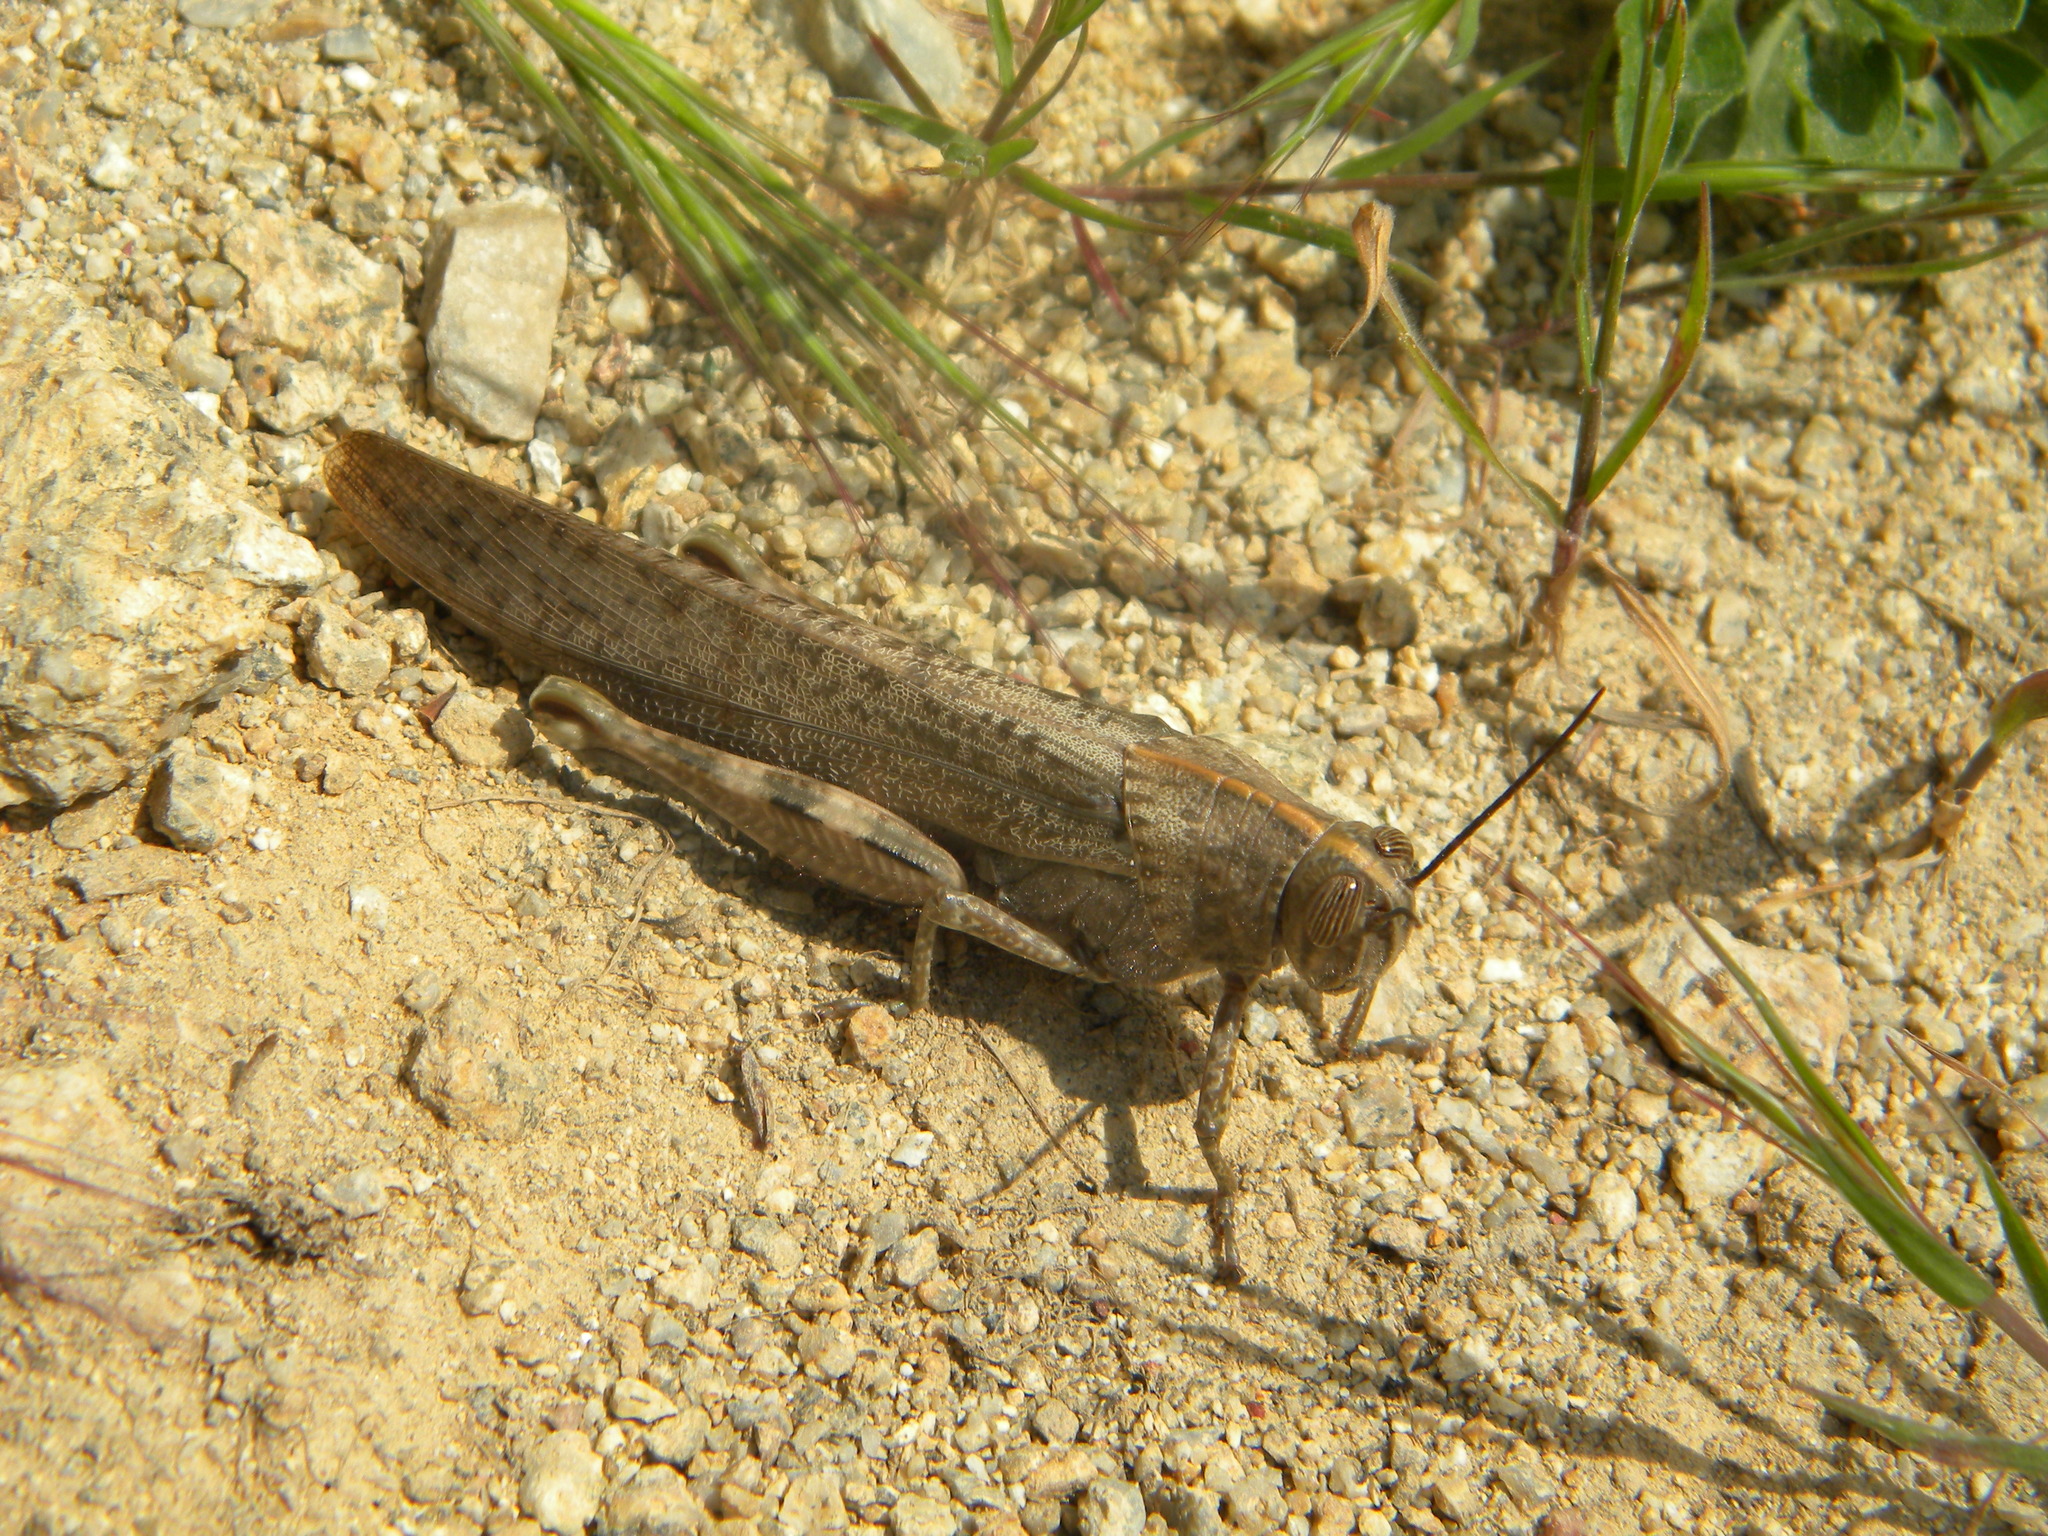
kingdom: Animalia
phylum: Arthropoda
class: Insecta
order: Orthoptera
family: Acrididae
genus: Anacridium
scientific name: Anacridium aegyptium
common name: Egyptian grasshopper
